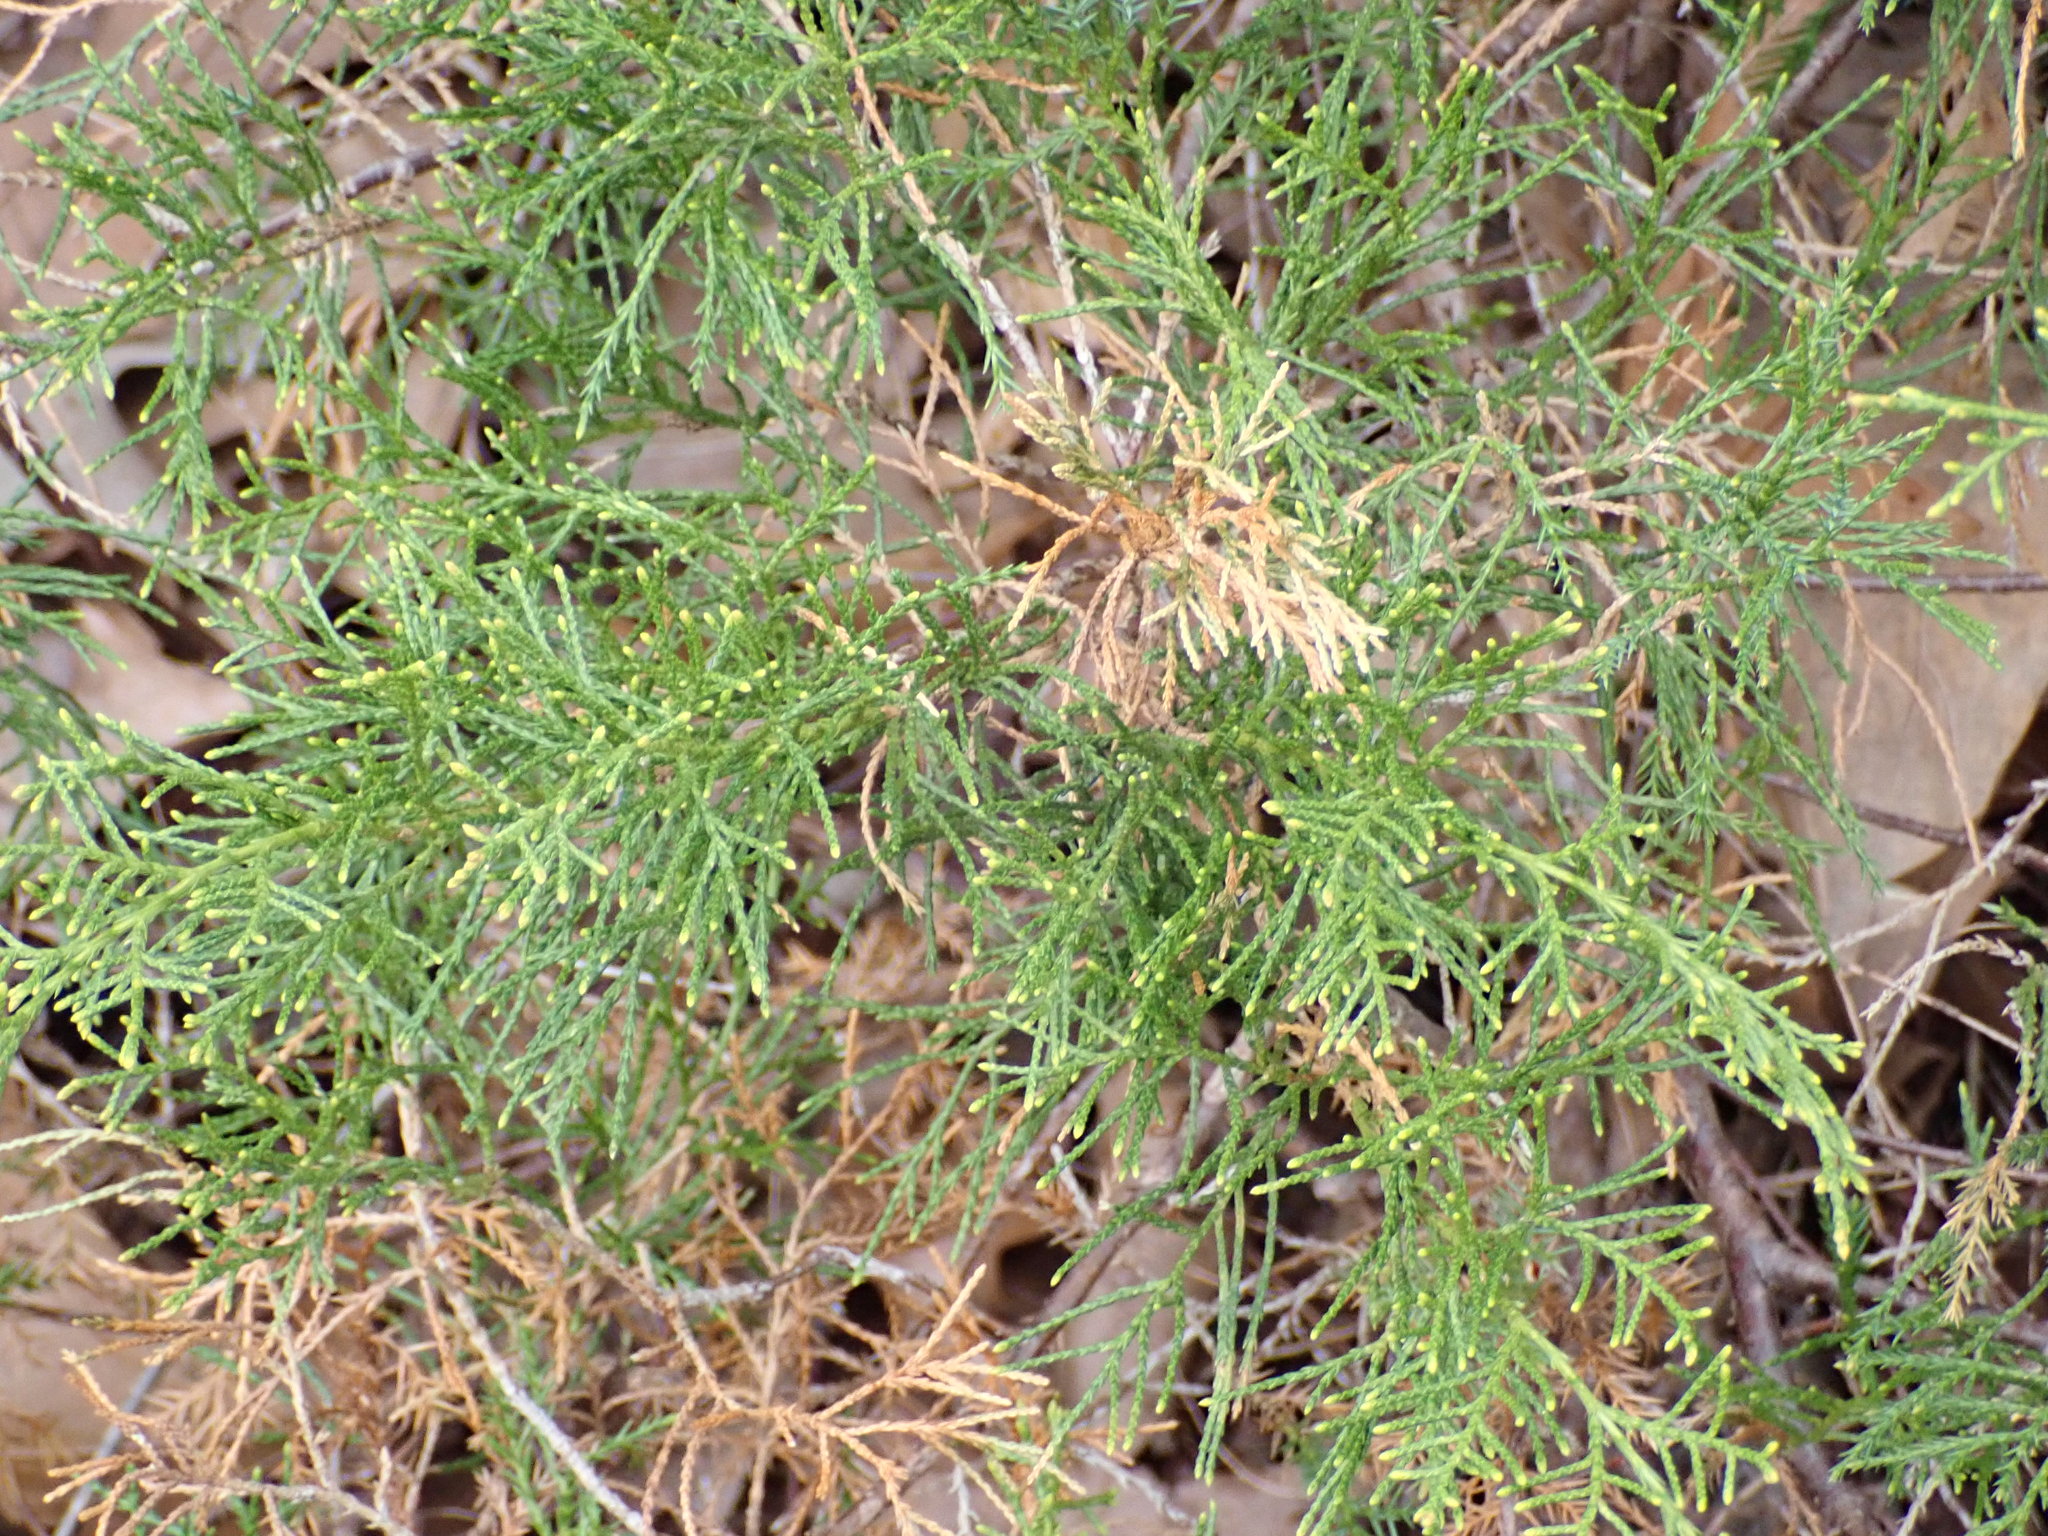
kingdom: Plantae
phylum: Tracheophyta
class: Pinopsida
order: Pinales
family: Cupressaceae
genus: Juniperus
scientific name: Juniperus virginiana
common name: Red juniper
